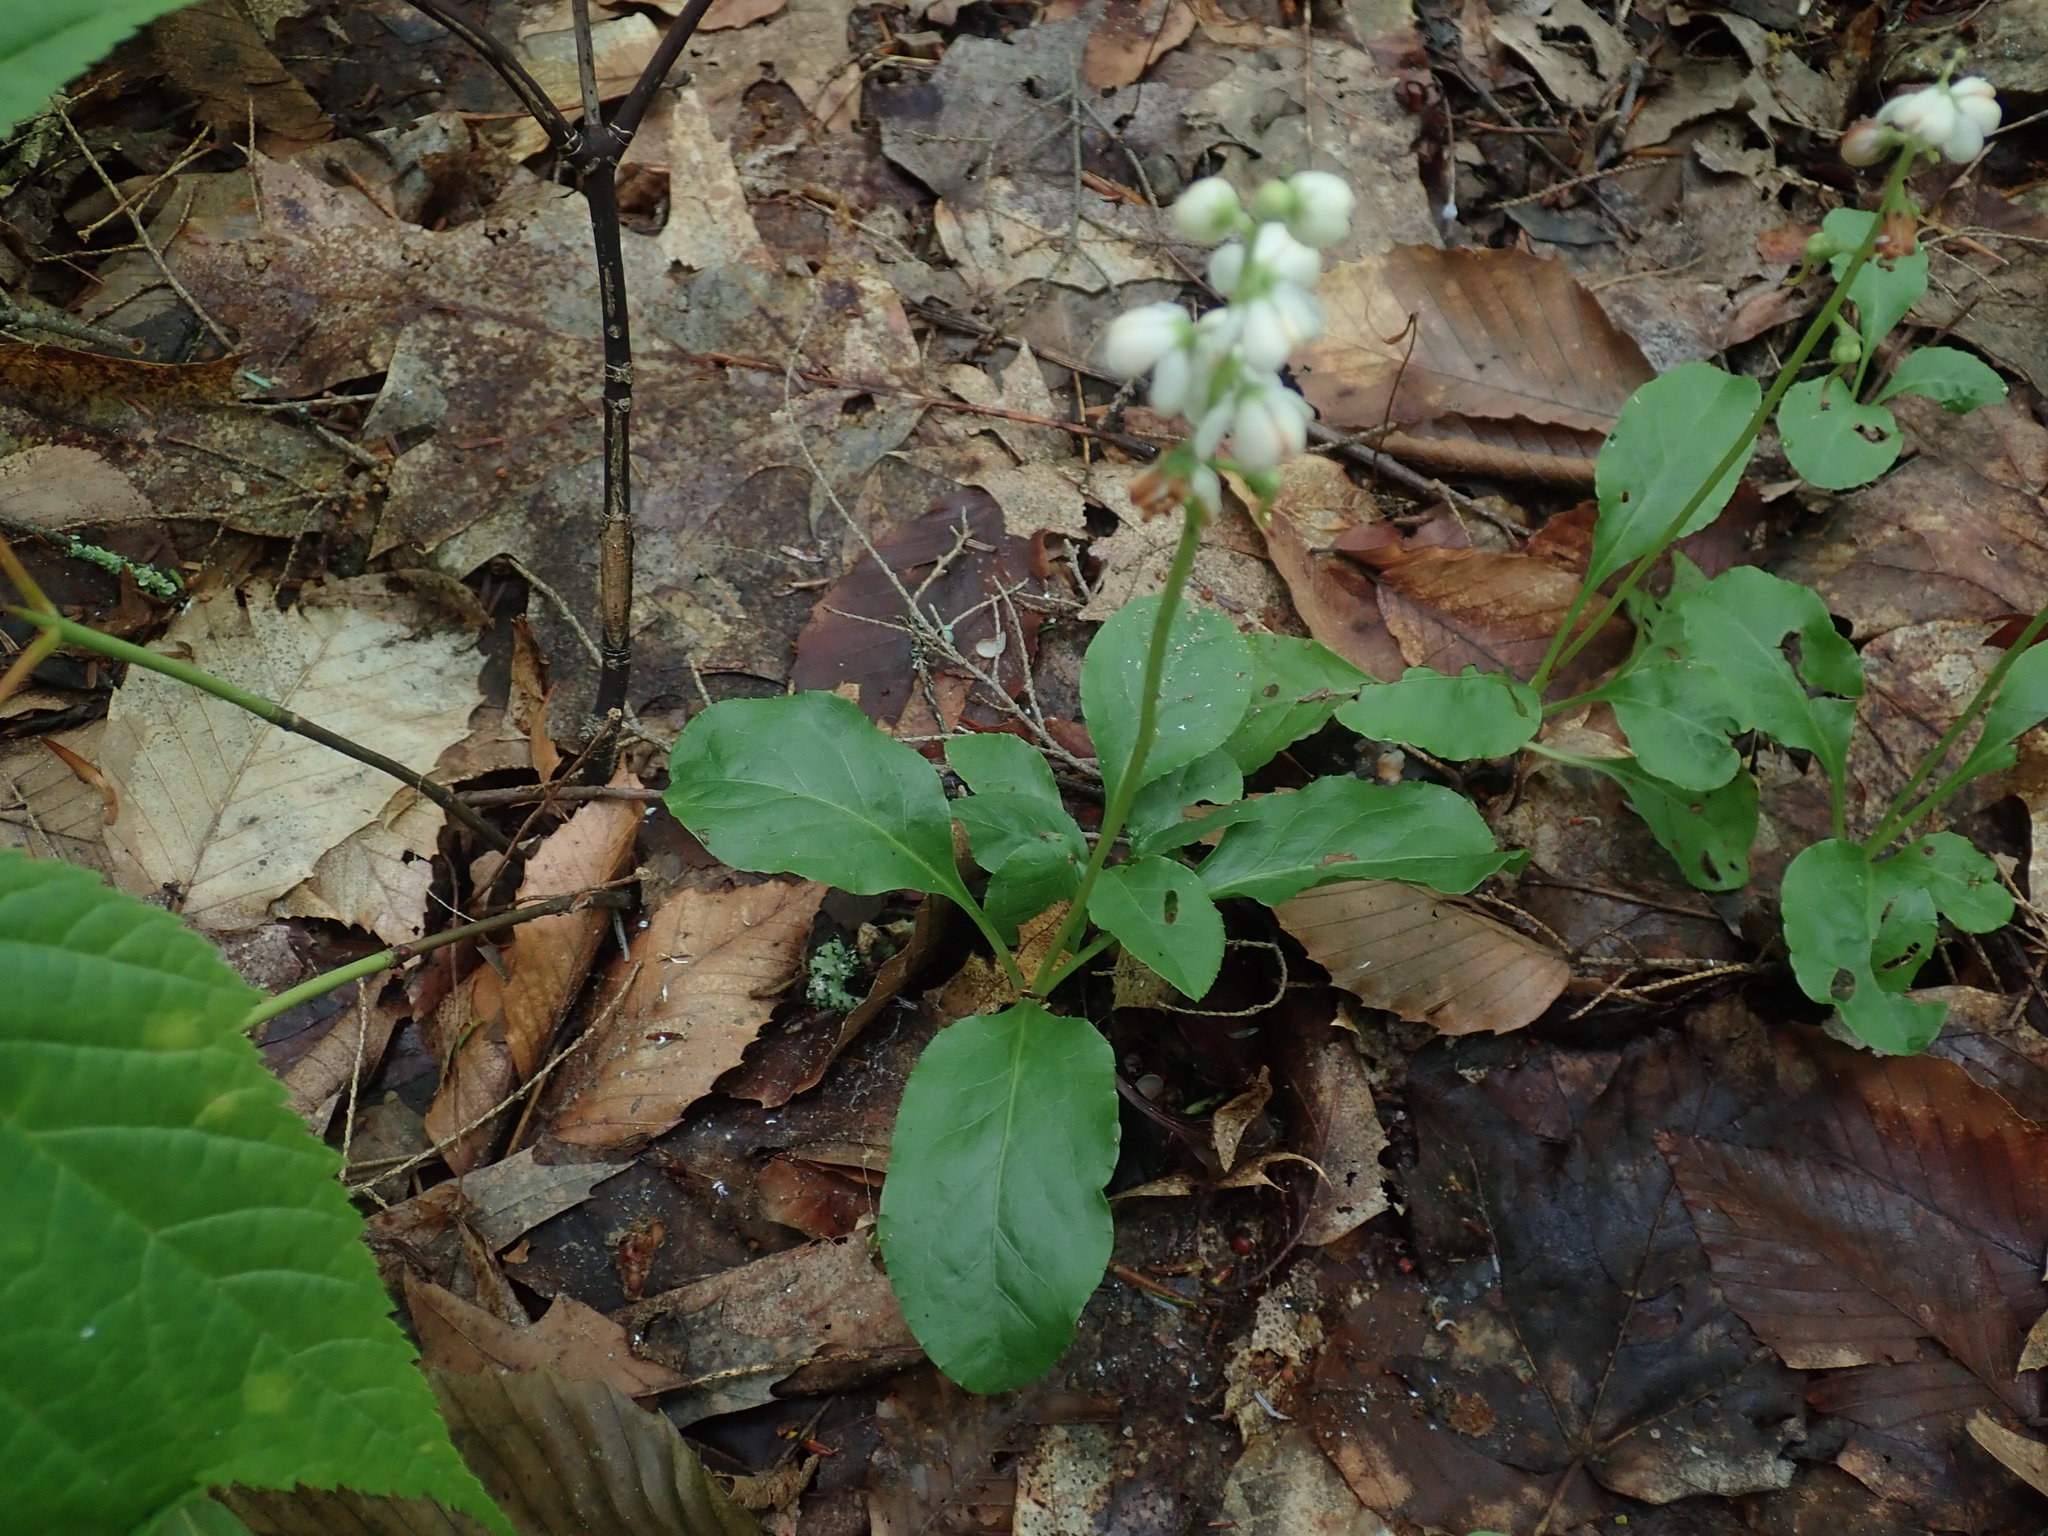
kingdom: Plantae
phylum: Tracheophyta
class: Magnoliopsida
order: Ericales
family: Ericaceae
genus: Pyrola
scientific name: Pyrola elliptica
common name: Shinleaf
